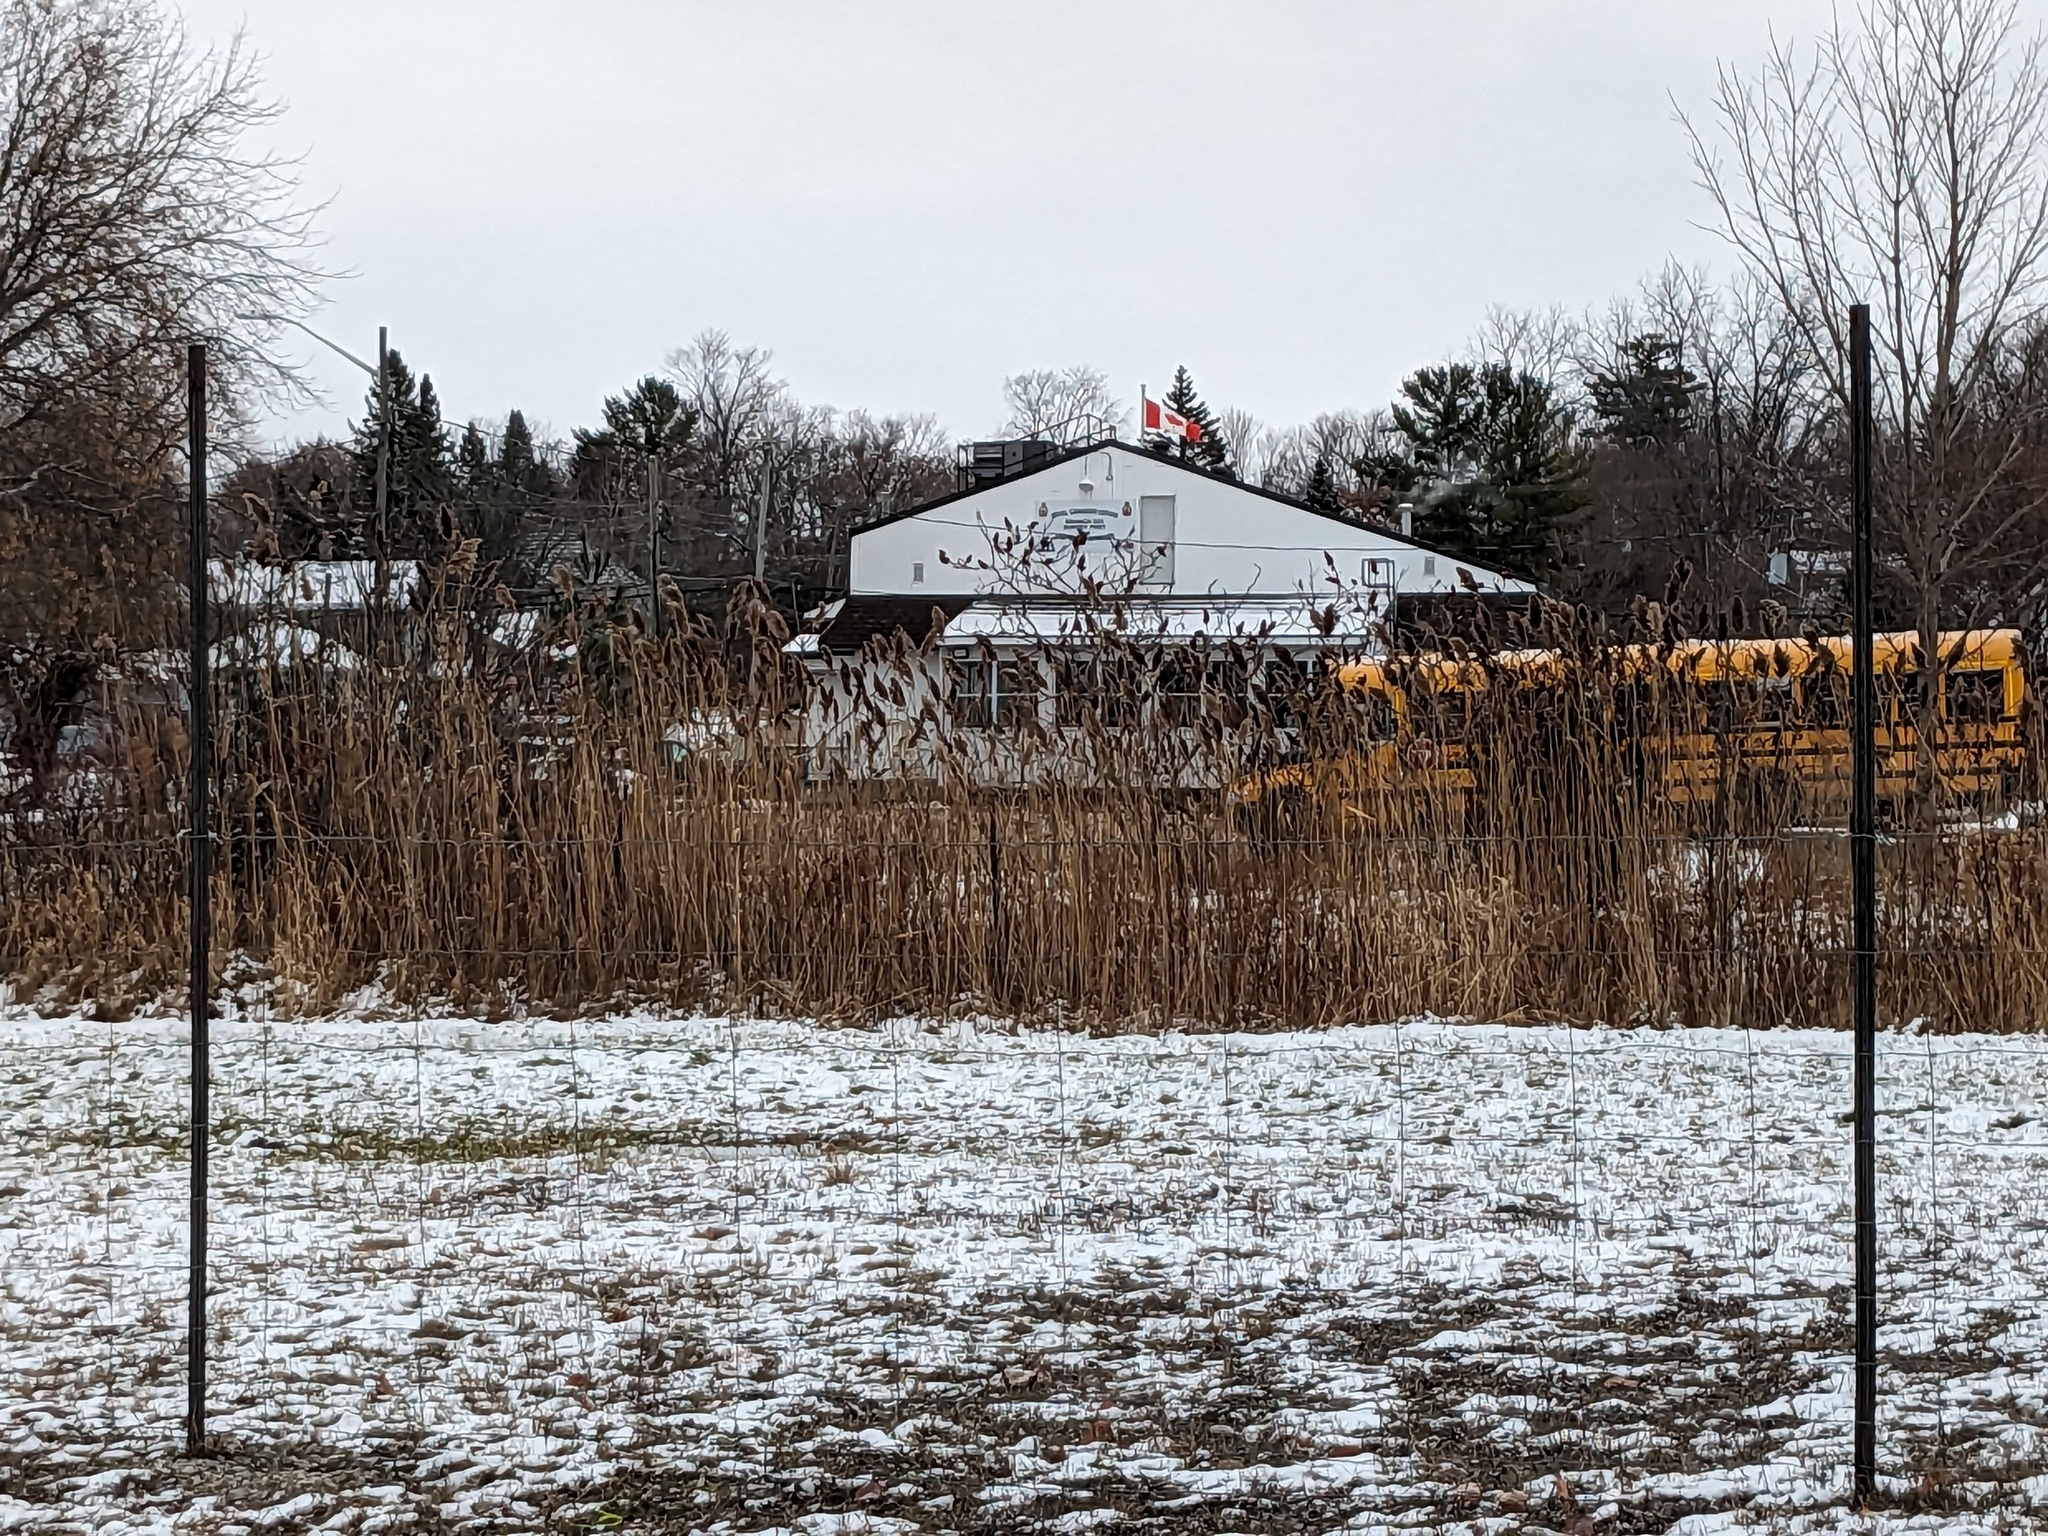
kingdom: Plantae
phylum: Tracheophyta
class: Liliopsida
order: Poales
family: Poaceae
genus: Phragmites
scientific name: Phragmites australis
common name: Common reed
